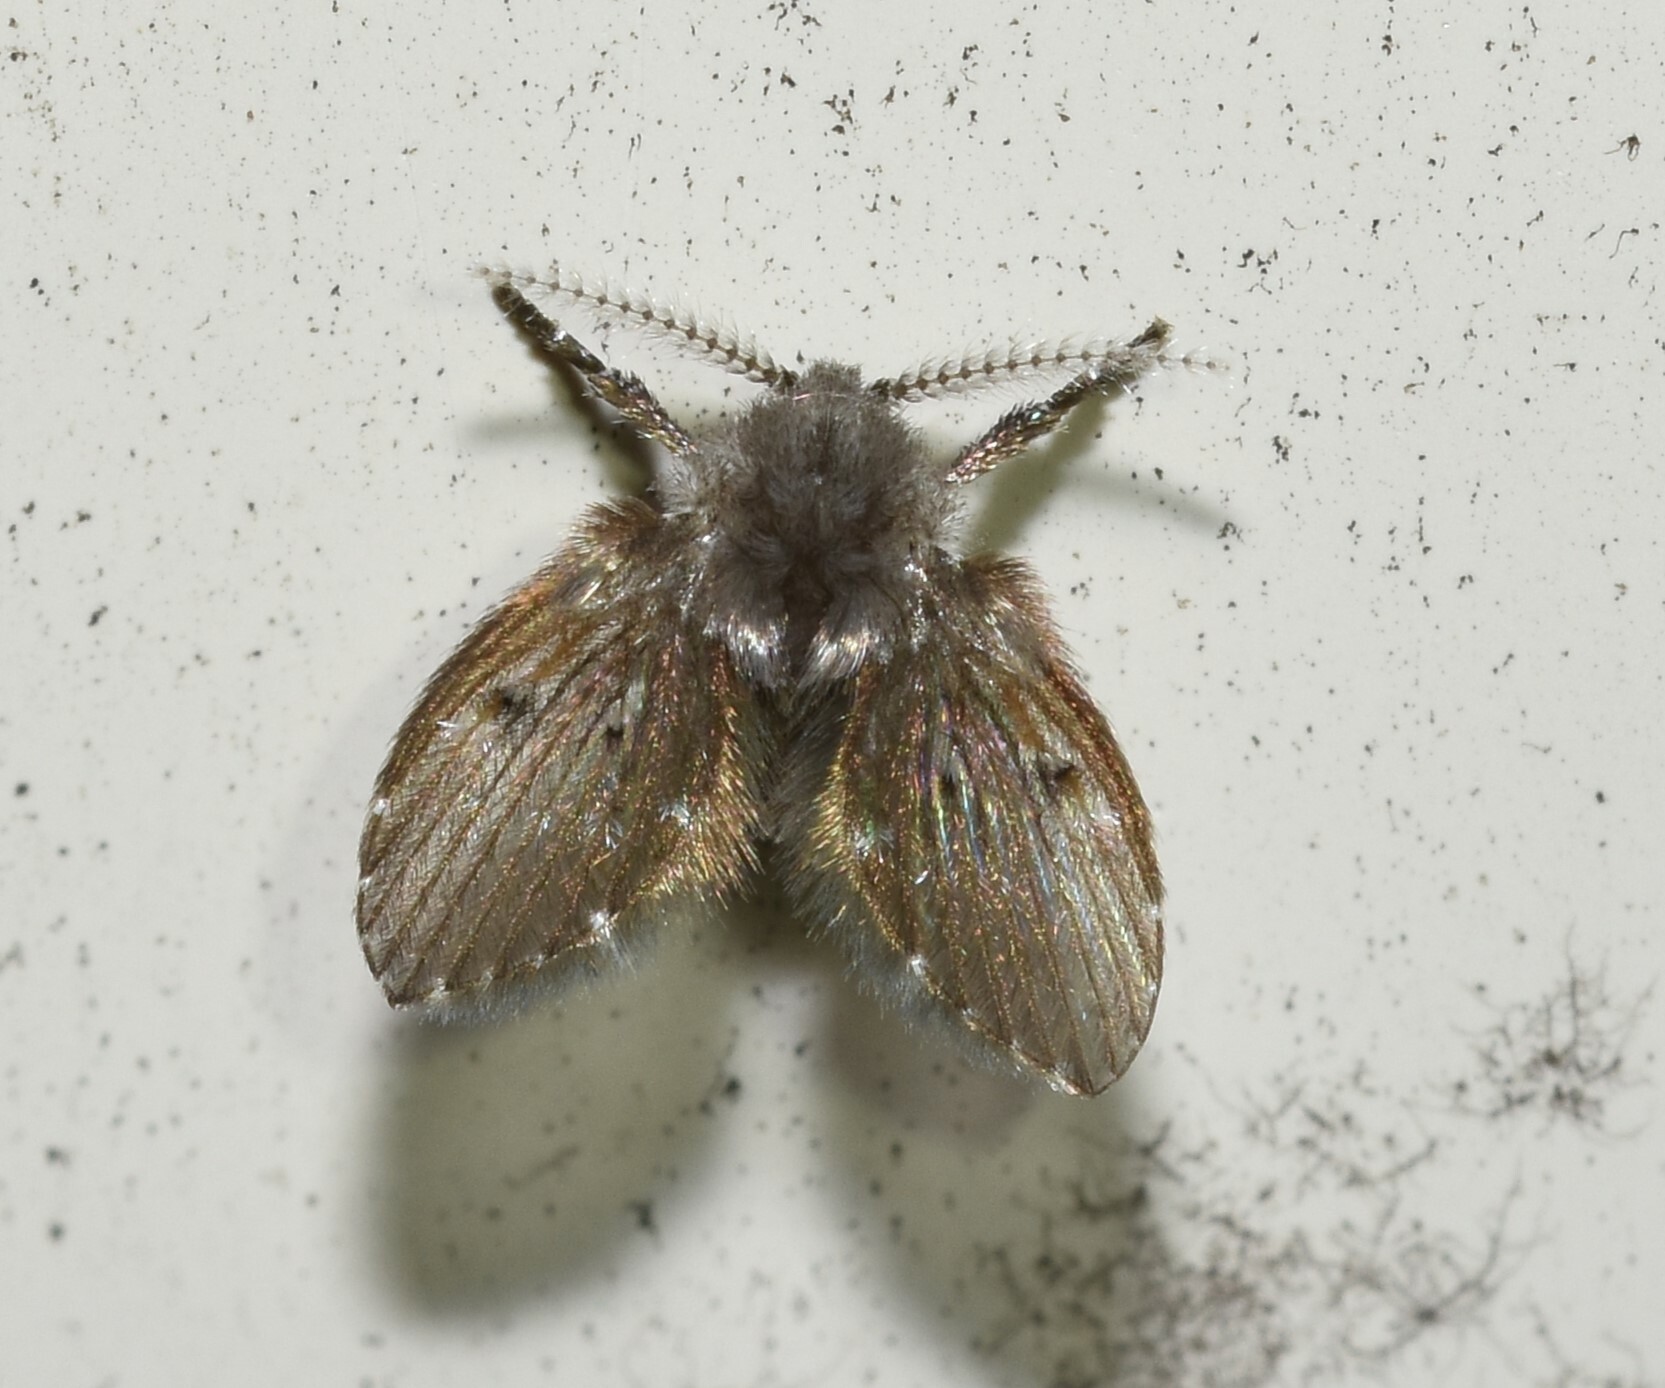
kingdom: Animalia
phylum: Arthropoda
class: Insecta
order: Diptera
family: Psychodidae
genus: Clogmia
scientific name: Clogmia albipunctatus
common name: White-spotted moth fly
